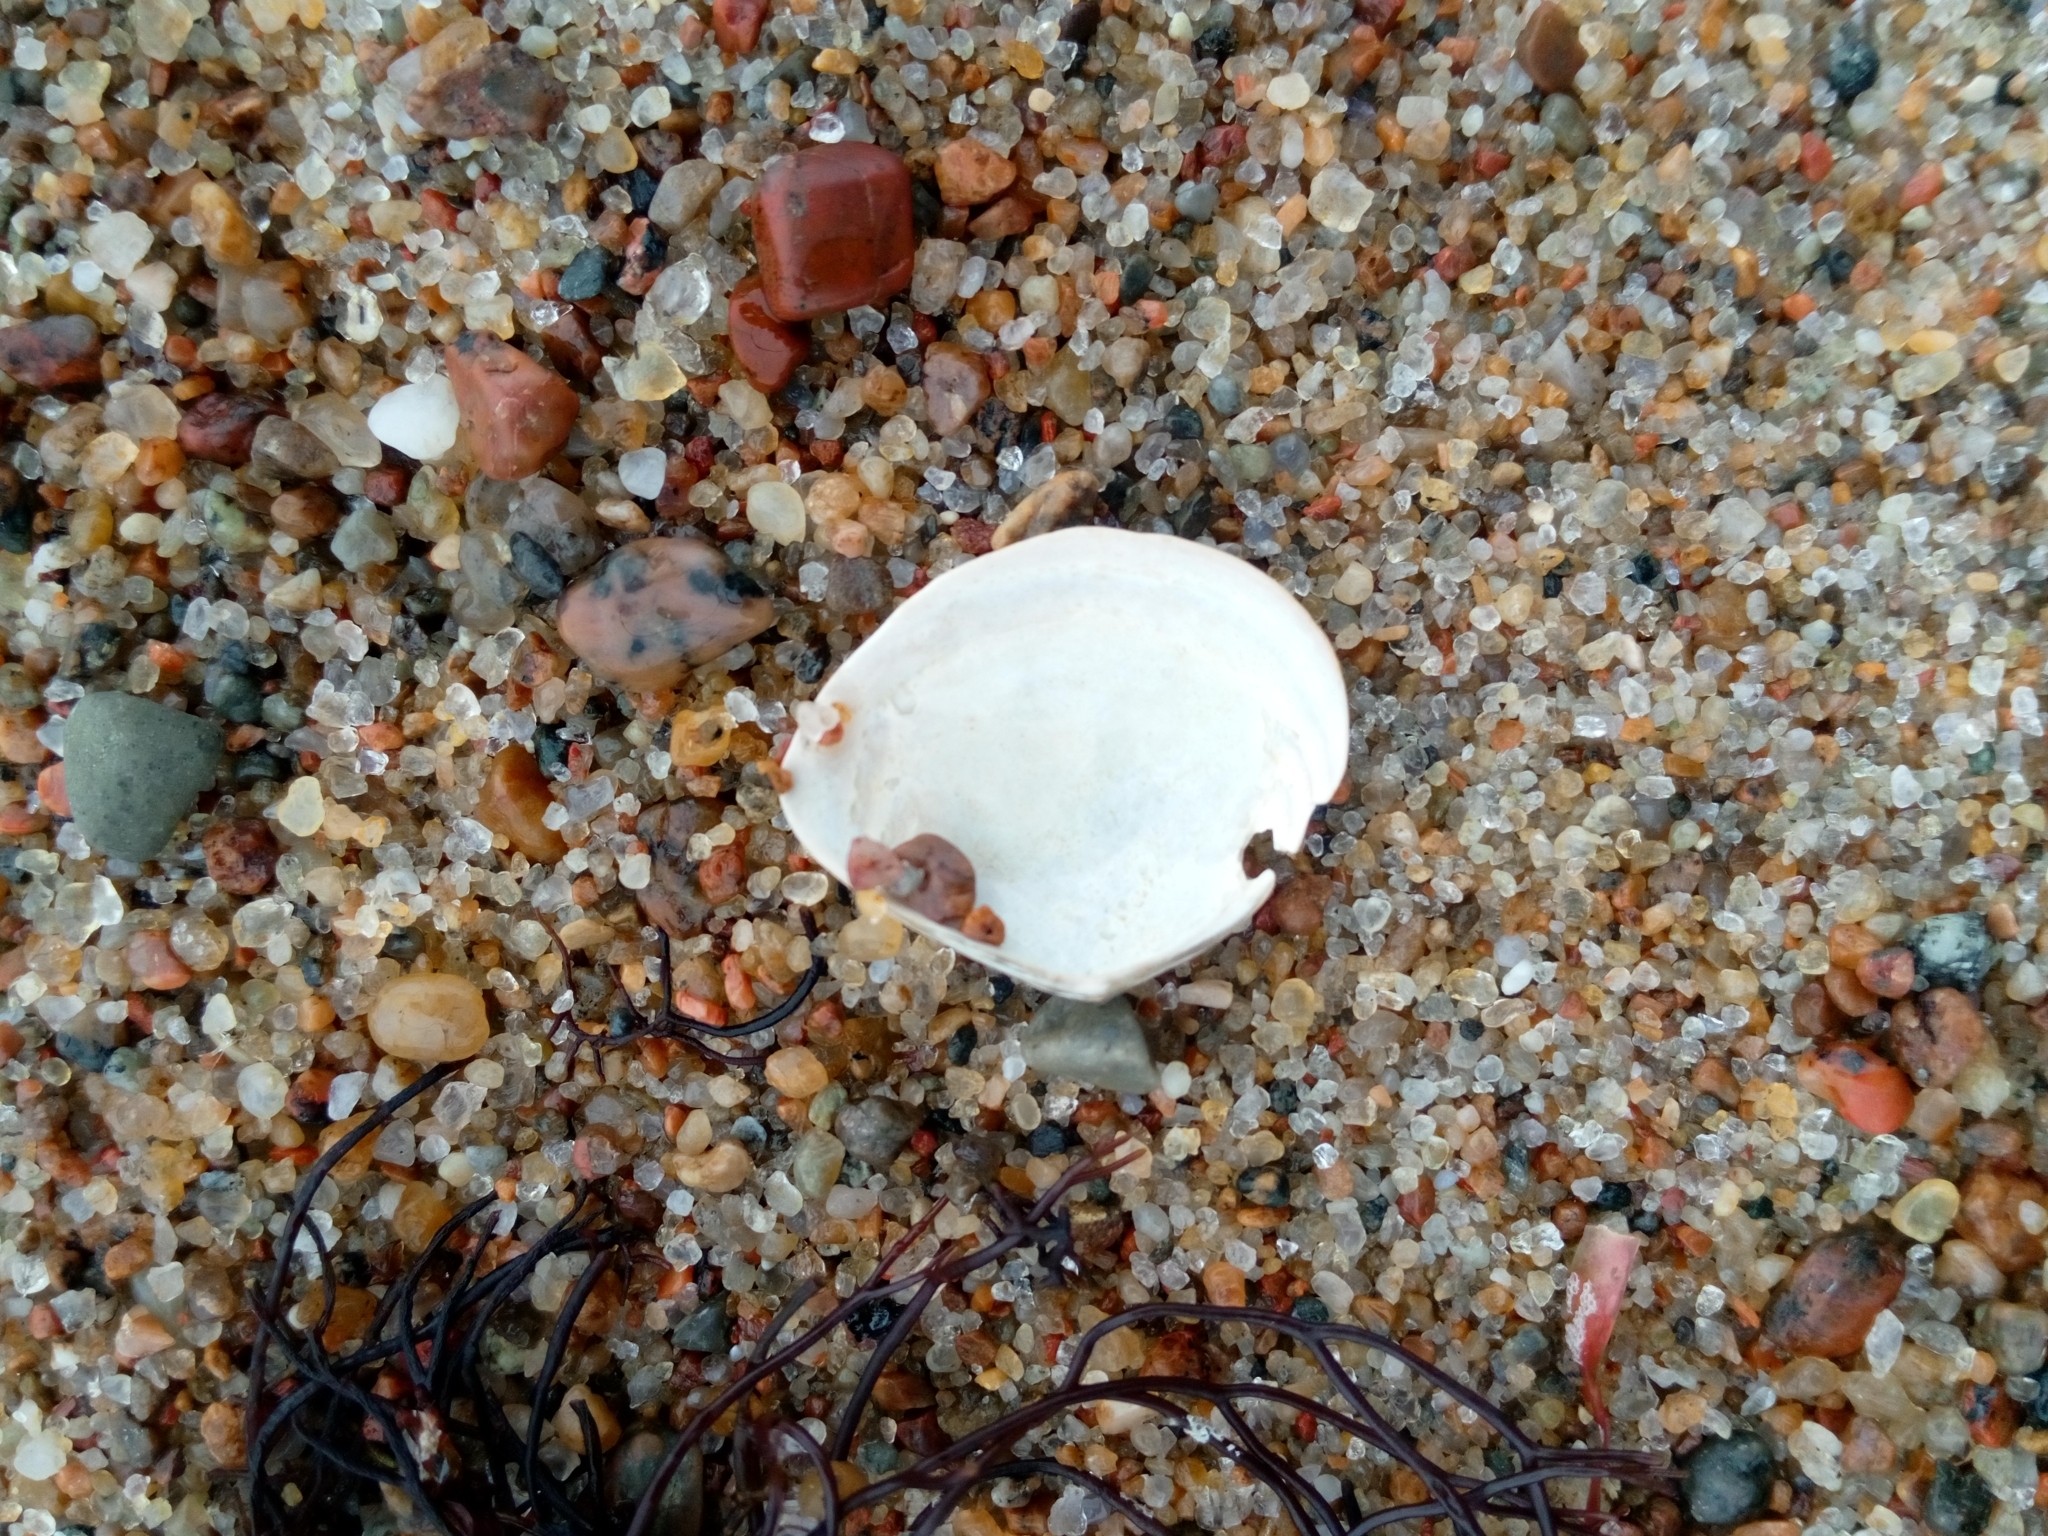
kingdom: Animalia
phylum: Mollusca
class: Bivalvia
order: Cardiida
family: Tellinidae
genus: Macoma
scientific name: Macoma balthica
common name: Baltic tellin
